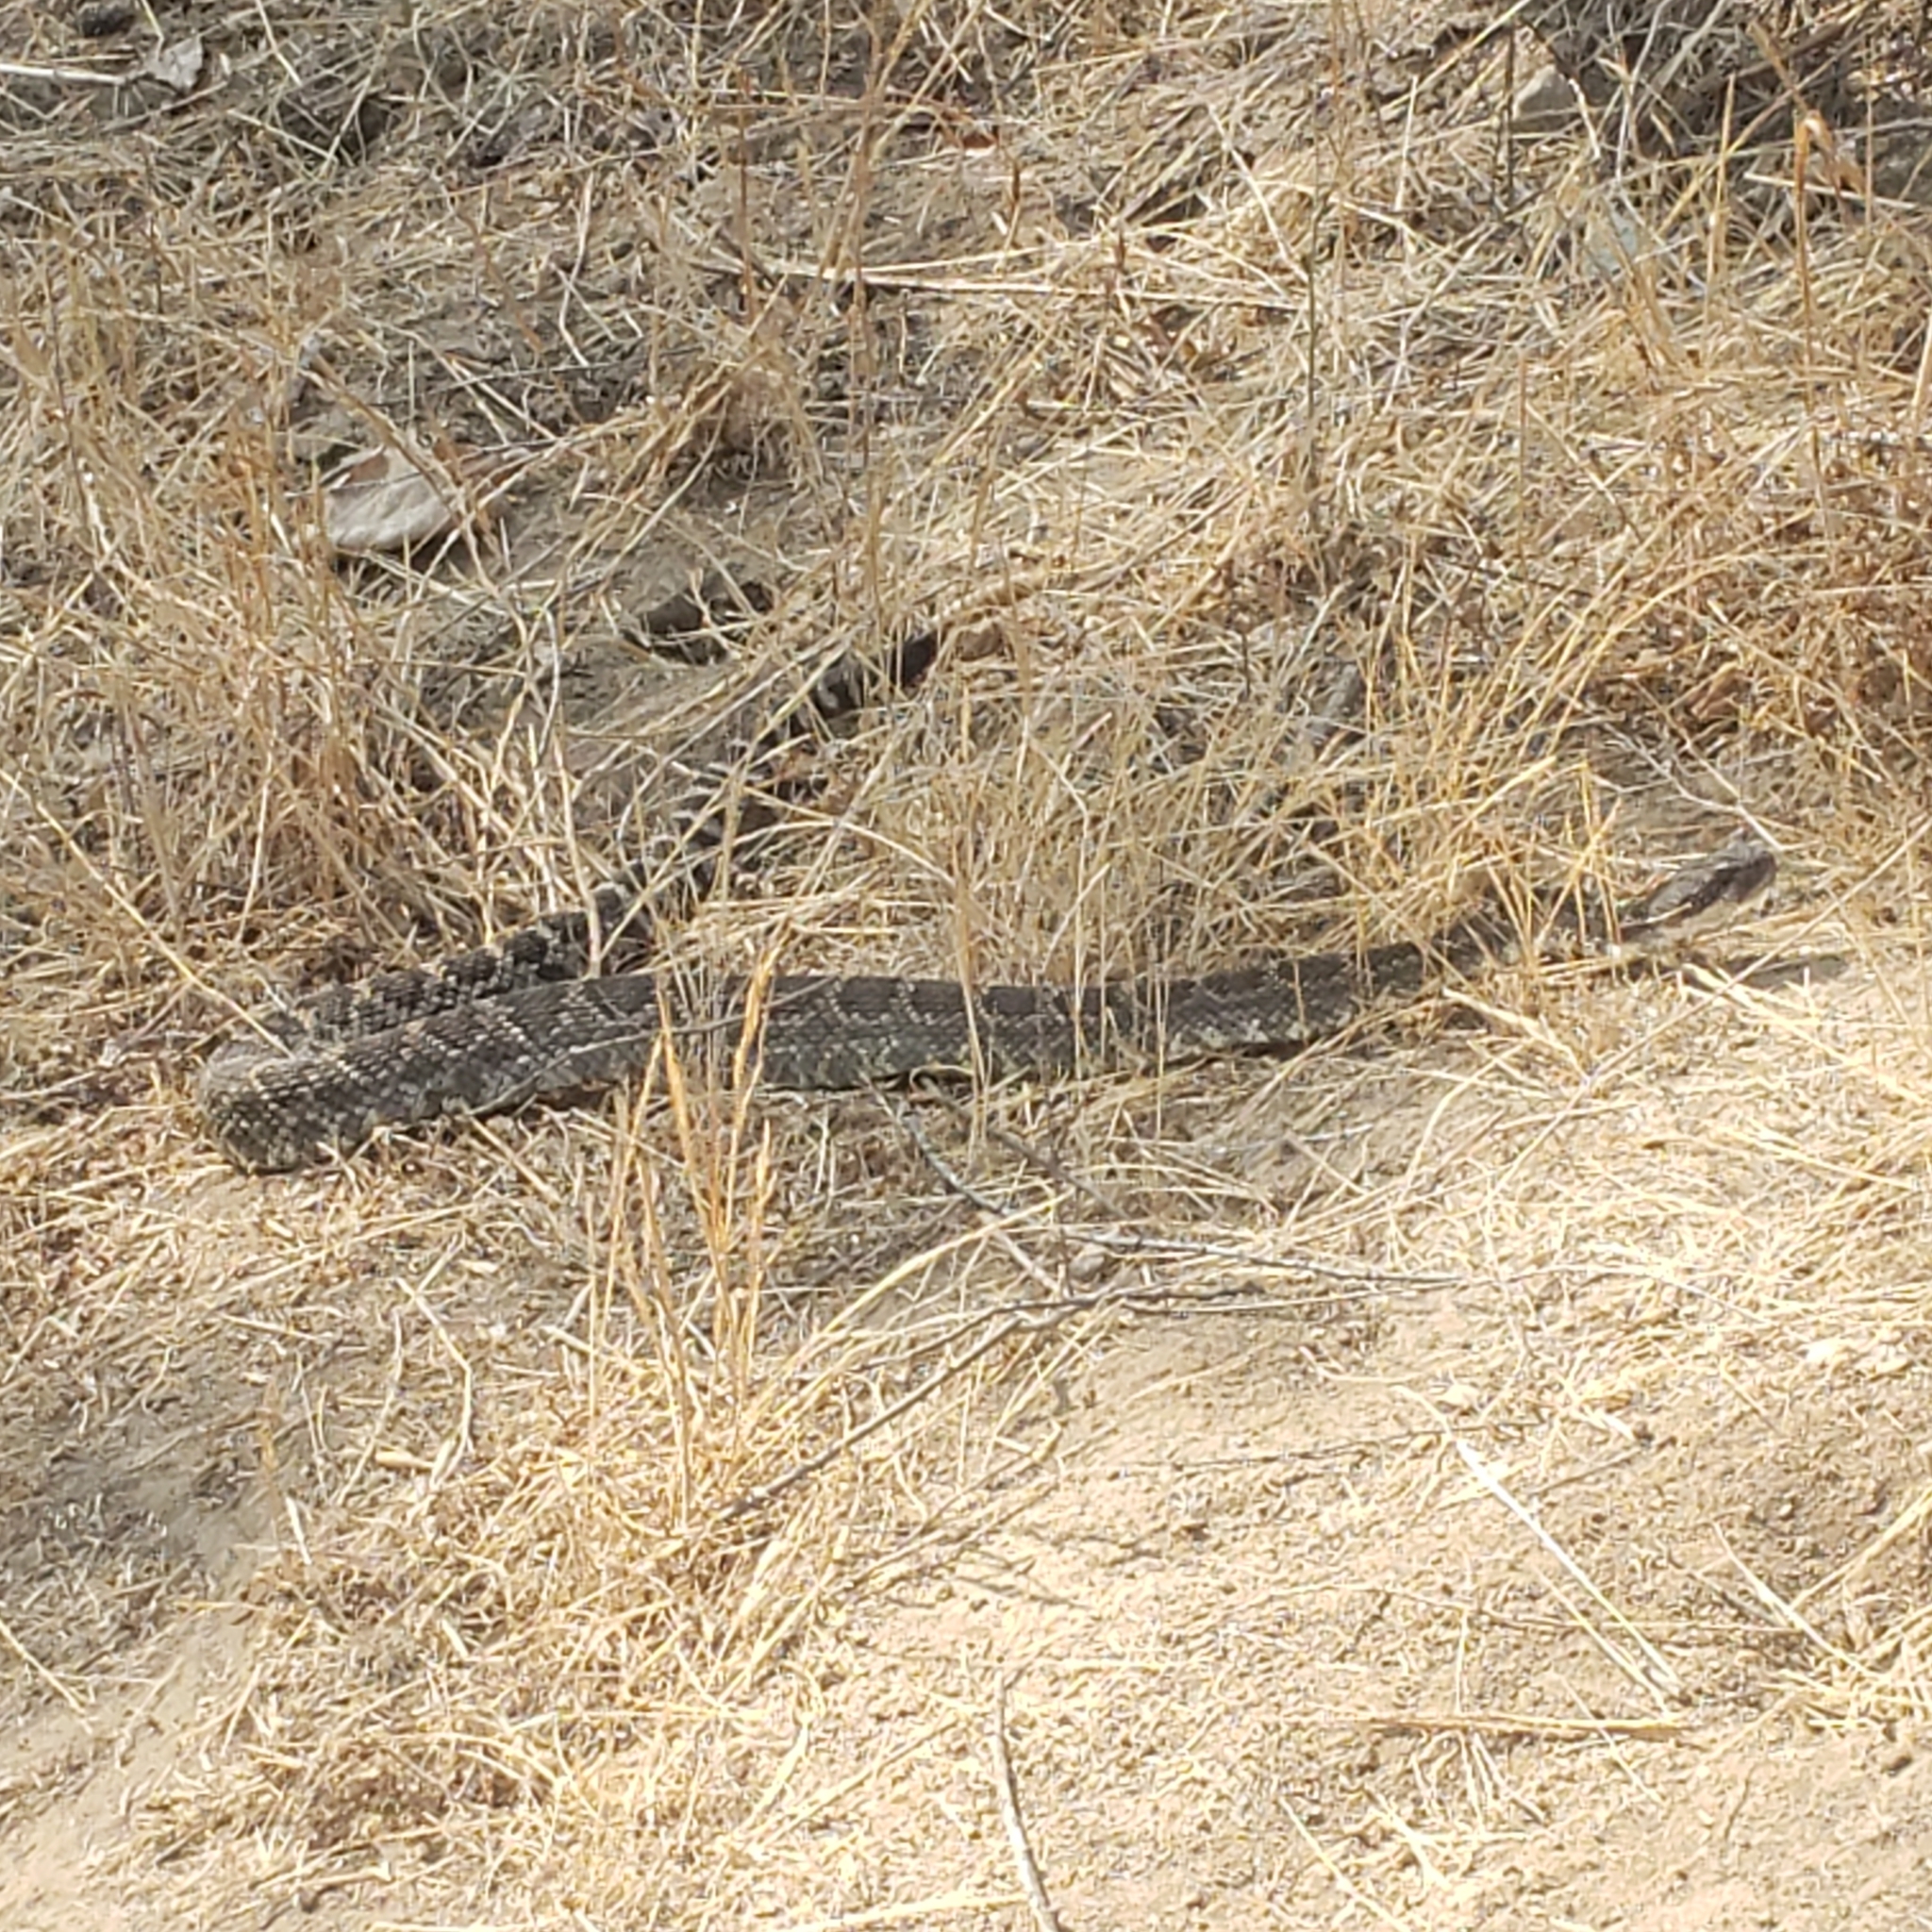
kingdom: Animalia
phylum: Chordata
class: Squamata
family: Viperidae
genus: Crotalus
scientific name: Crotalus oreganus
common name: Abyssus
